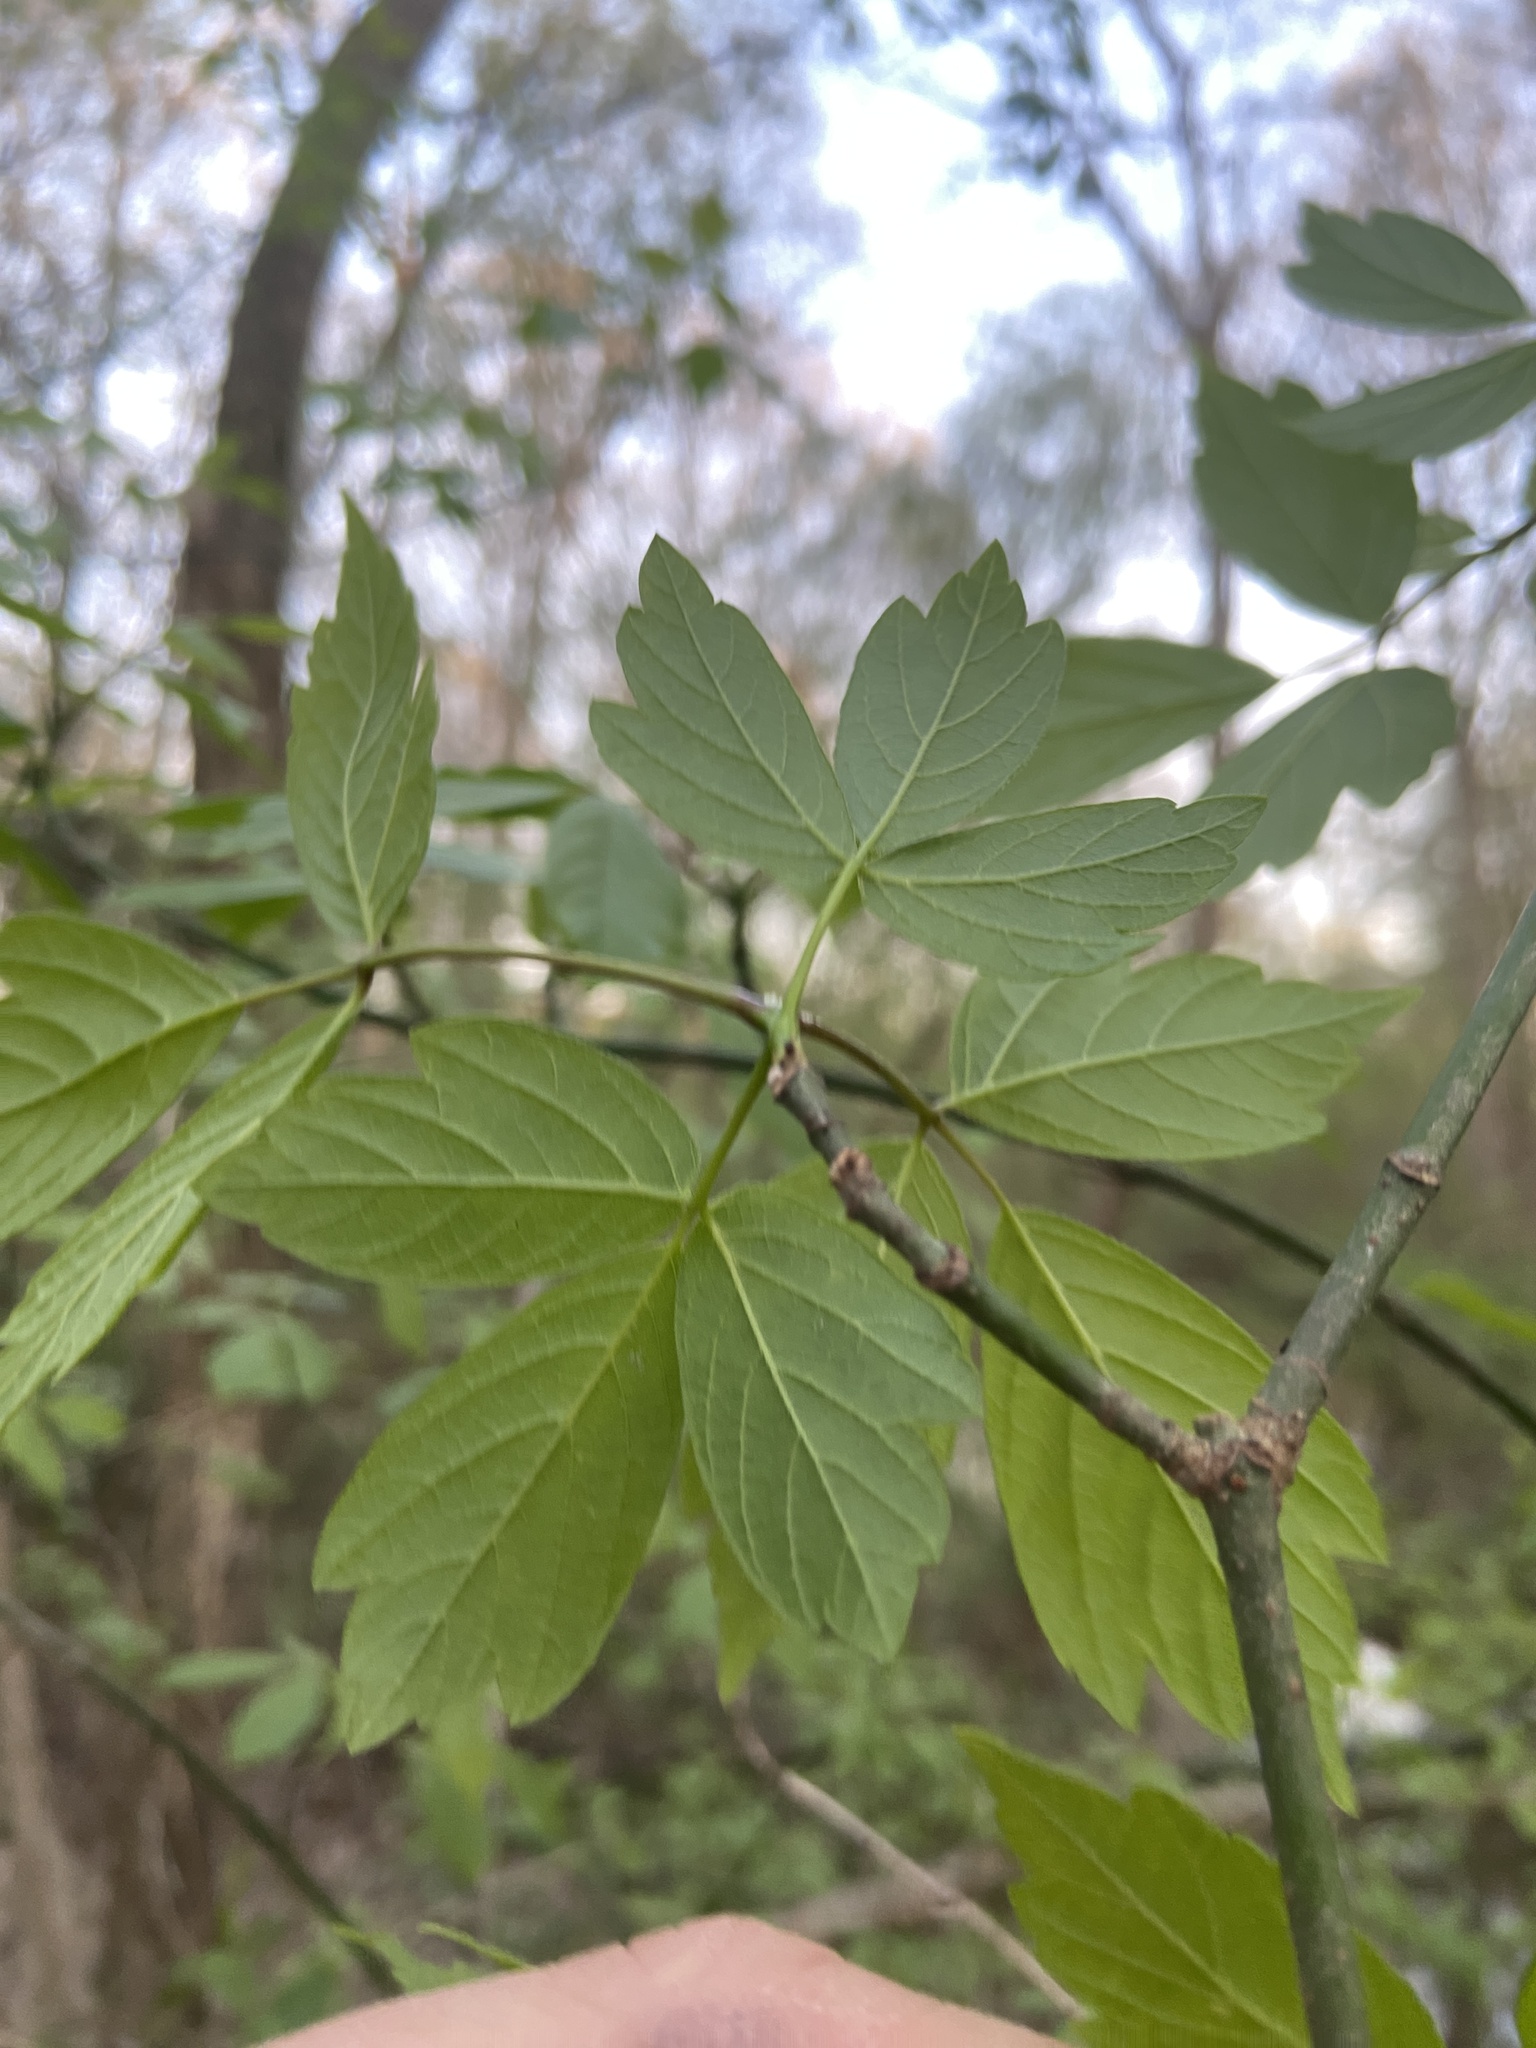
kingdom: Plantae
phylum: Tracheophyta
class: Magnoliopsida
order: Sapindales
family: Sapindaceae
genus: Acer
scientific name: Acer negundo
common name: Ashleaf maple
